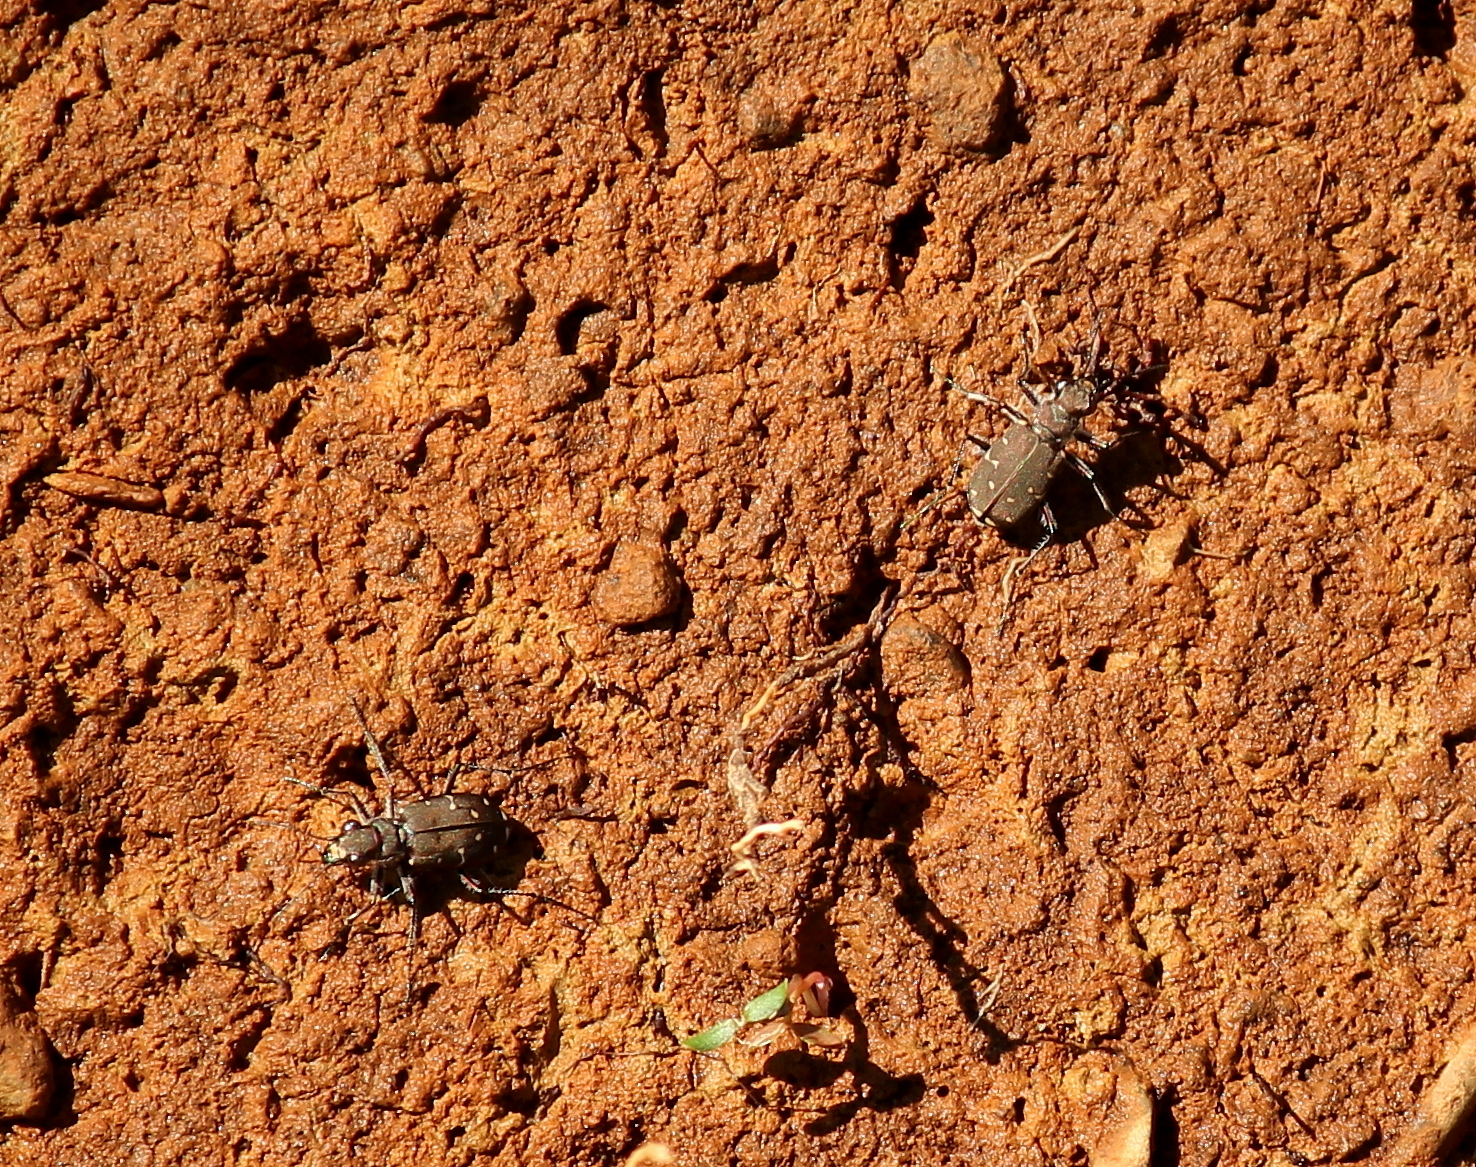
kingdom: Animalia
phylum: Arthropoda
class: Insecta
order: Coleoptera
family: Carabidae
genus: Cicindela
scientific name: Cicindela duodecimguttata
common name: Twelve-spotted tiger beetle
